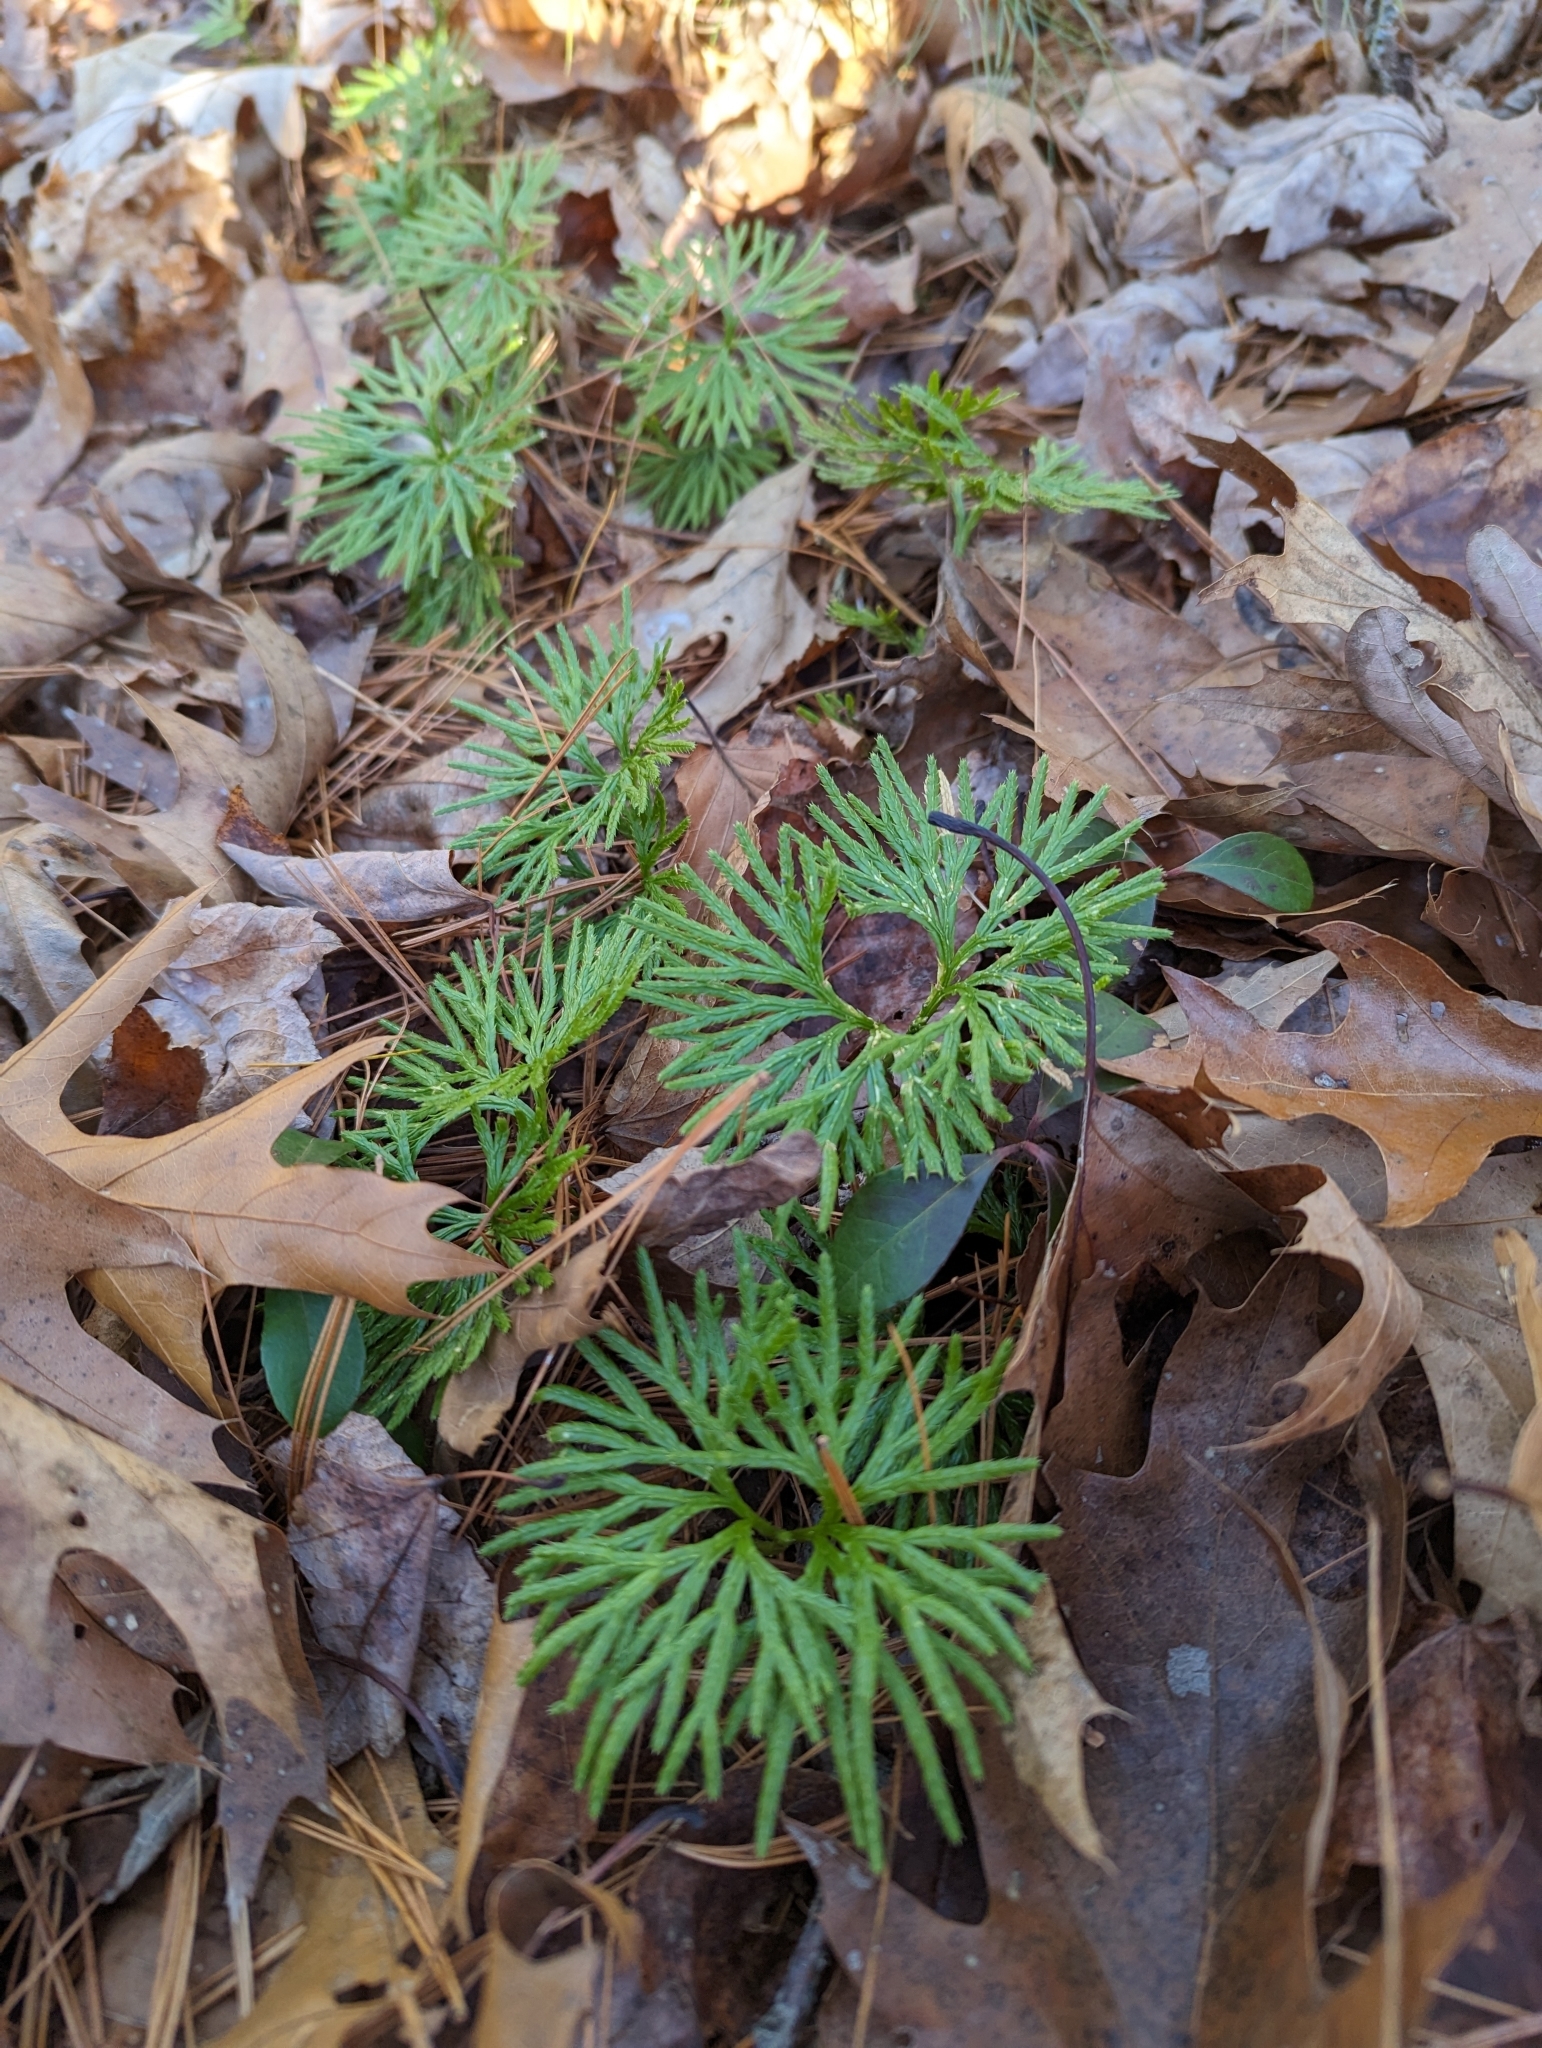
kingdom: Plantae
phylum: Tracheophyta
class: Lycopodiopsida
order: Lycopodiales
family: Lycopodiaceae
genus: Diphasiastrum
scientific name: Diphasiastrum digitatum
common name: Southern running-pine
